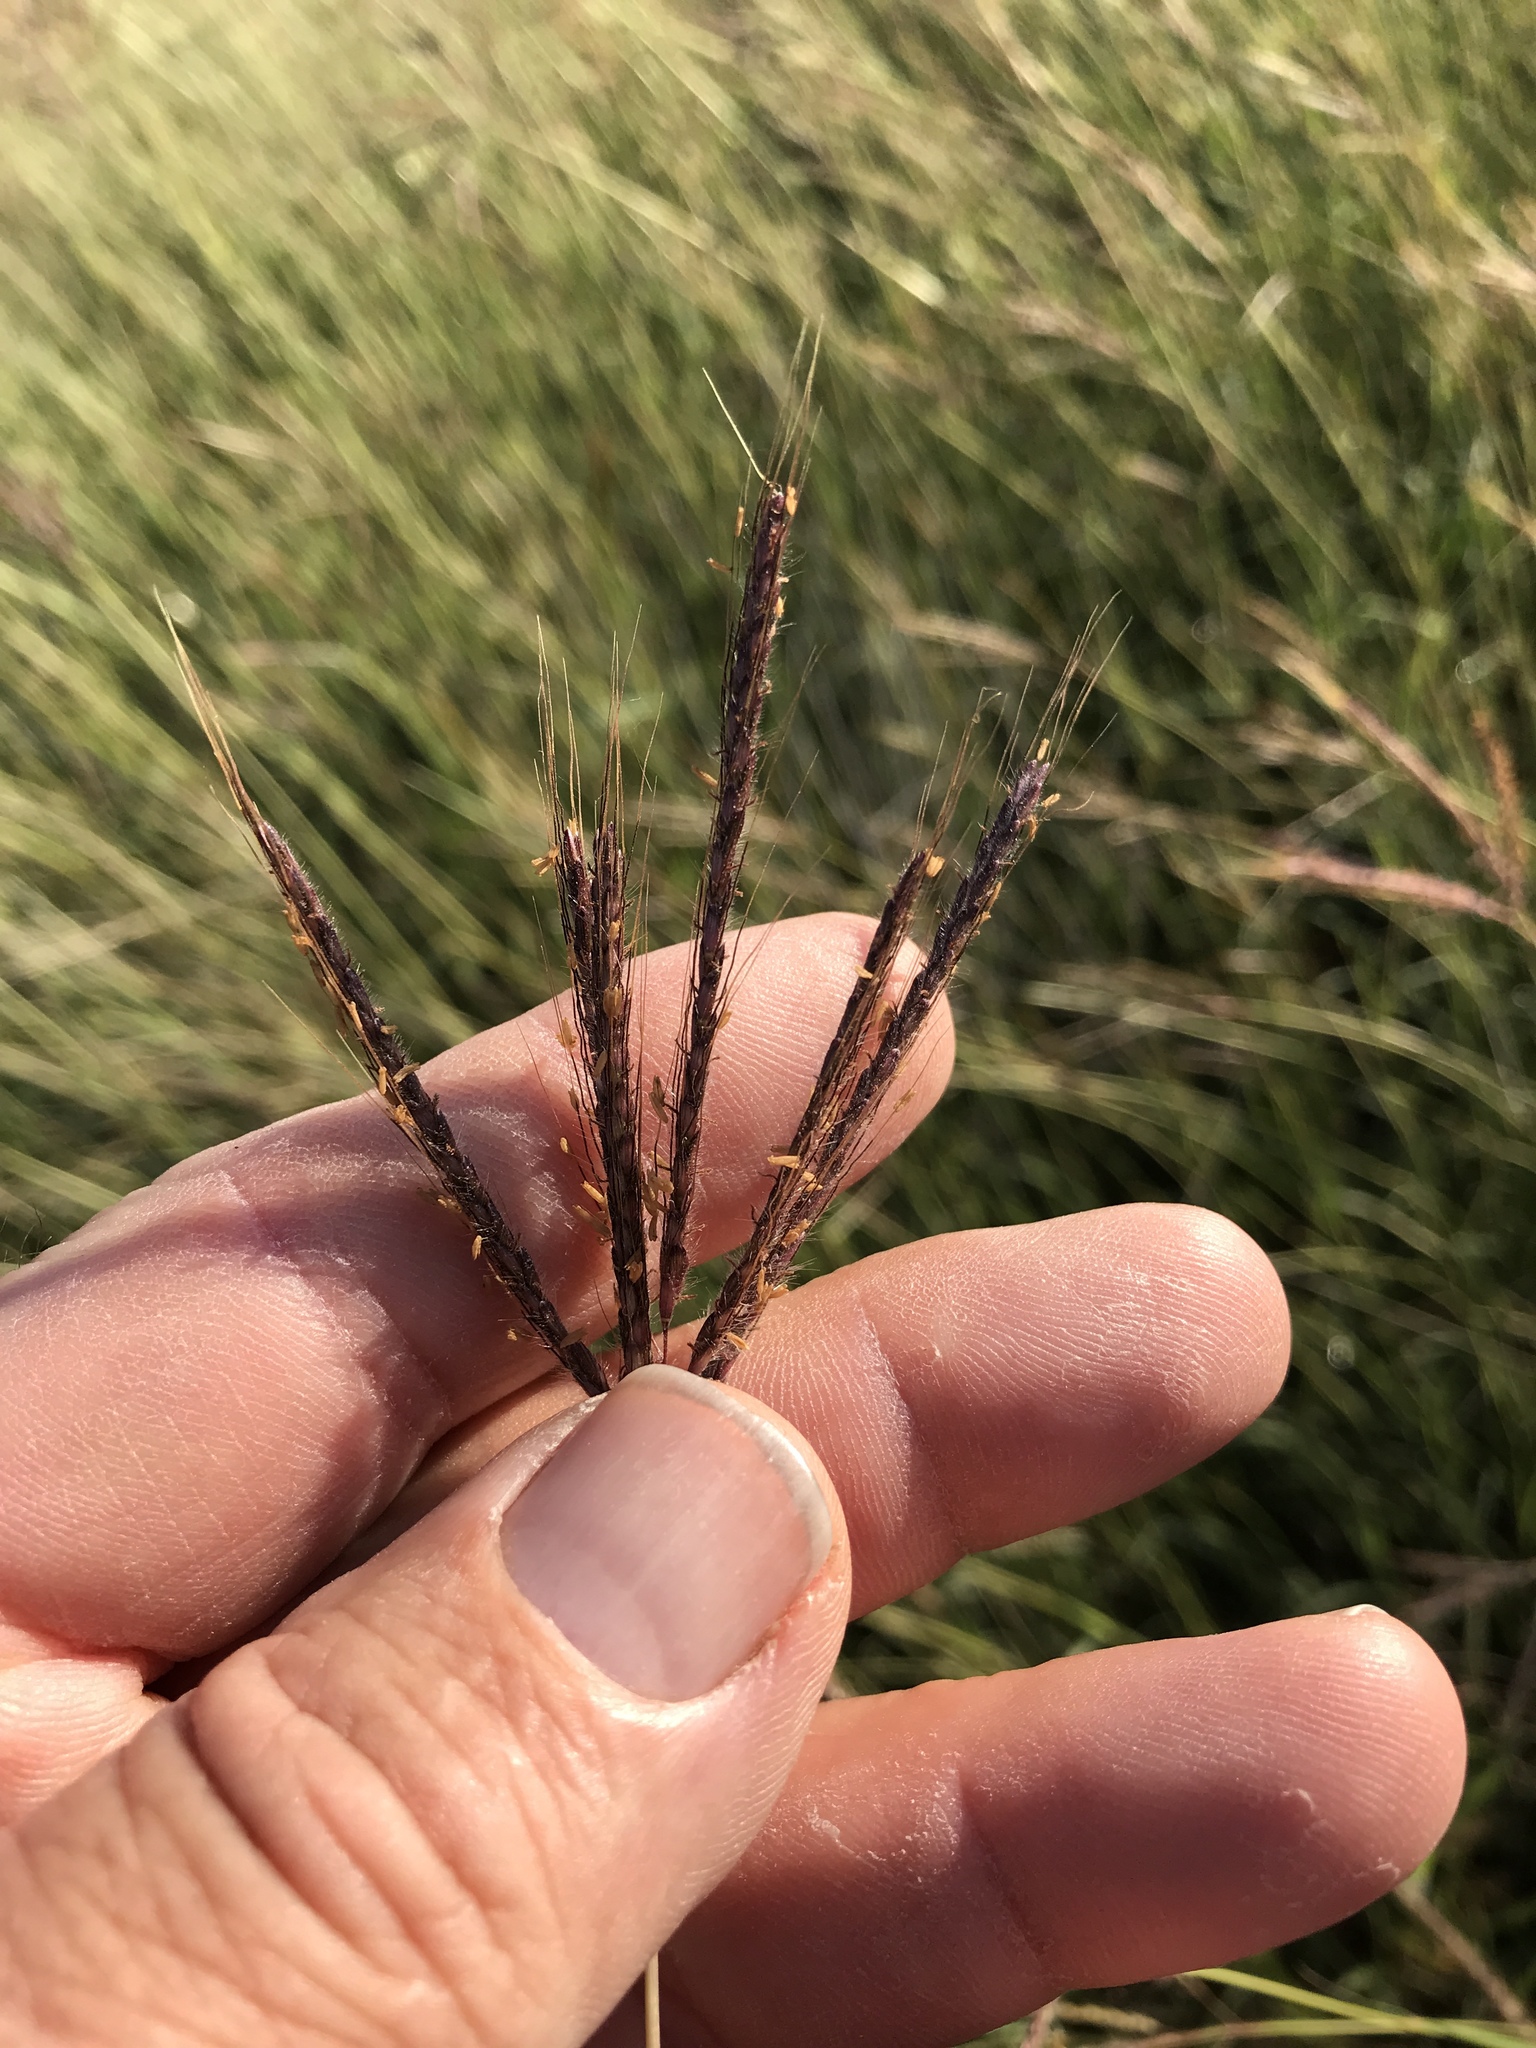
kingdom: Plantae
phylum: Tracheophyta
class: Liliopsida
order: Poales
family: Poaceae
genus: Dichanthium
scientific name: Dichanthium annulatum
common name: Kleberg's bluestem
